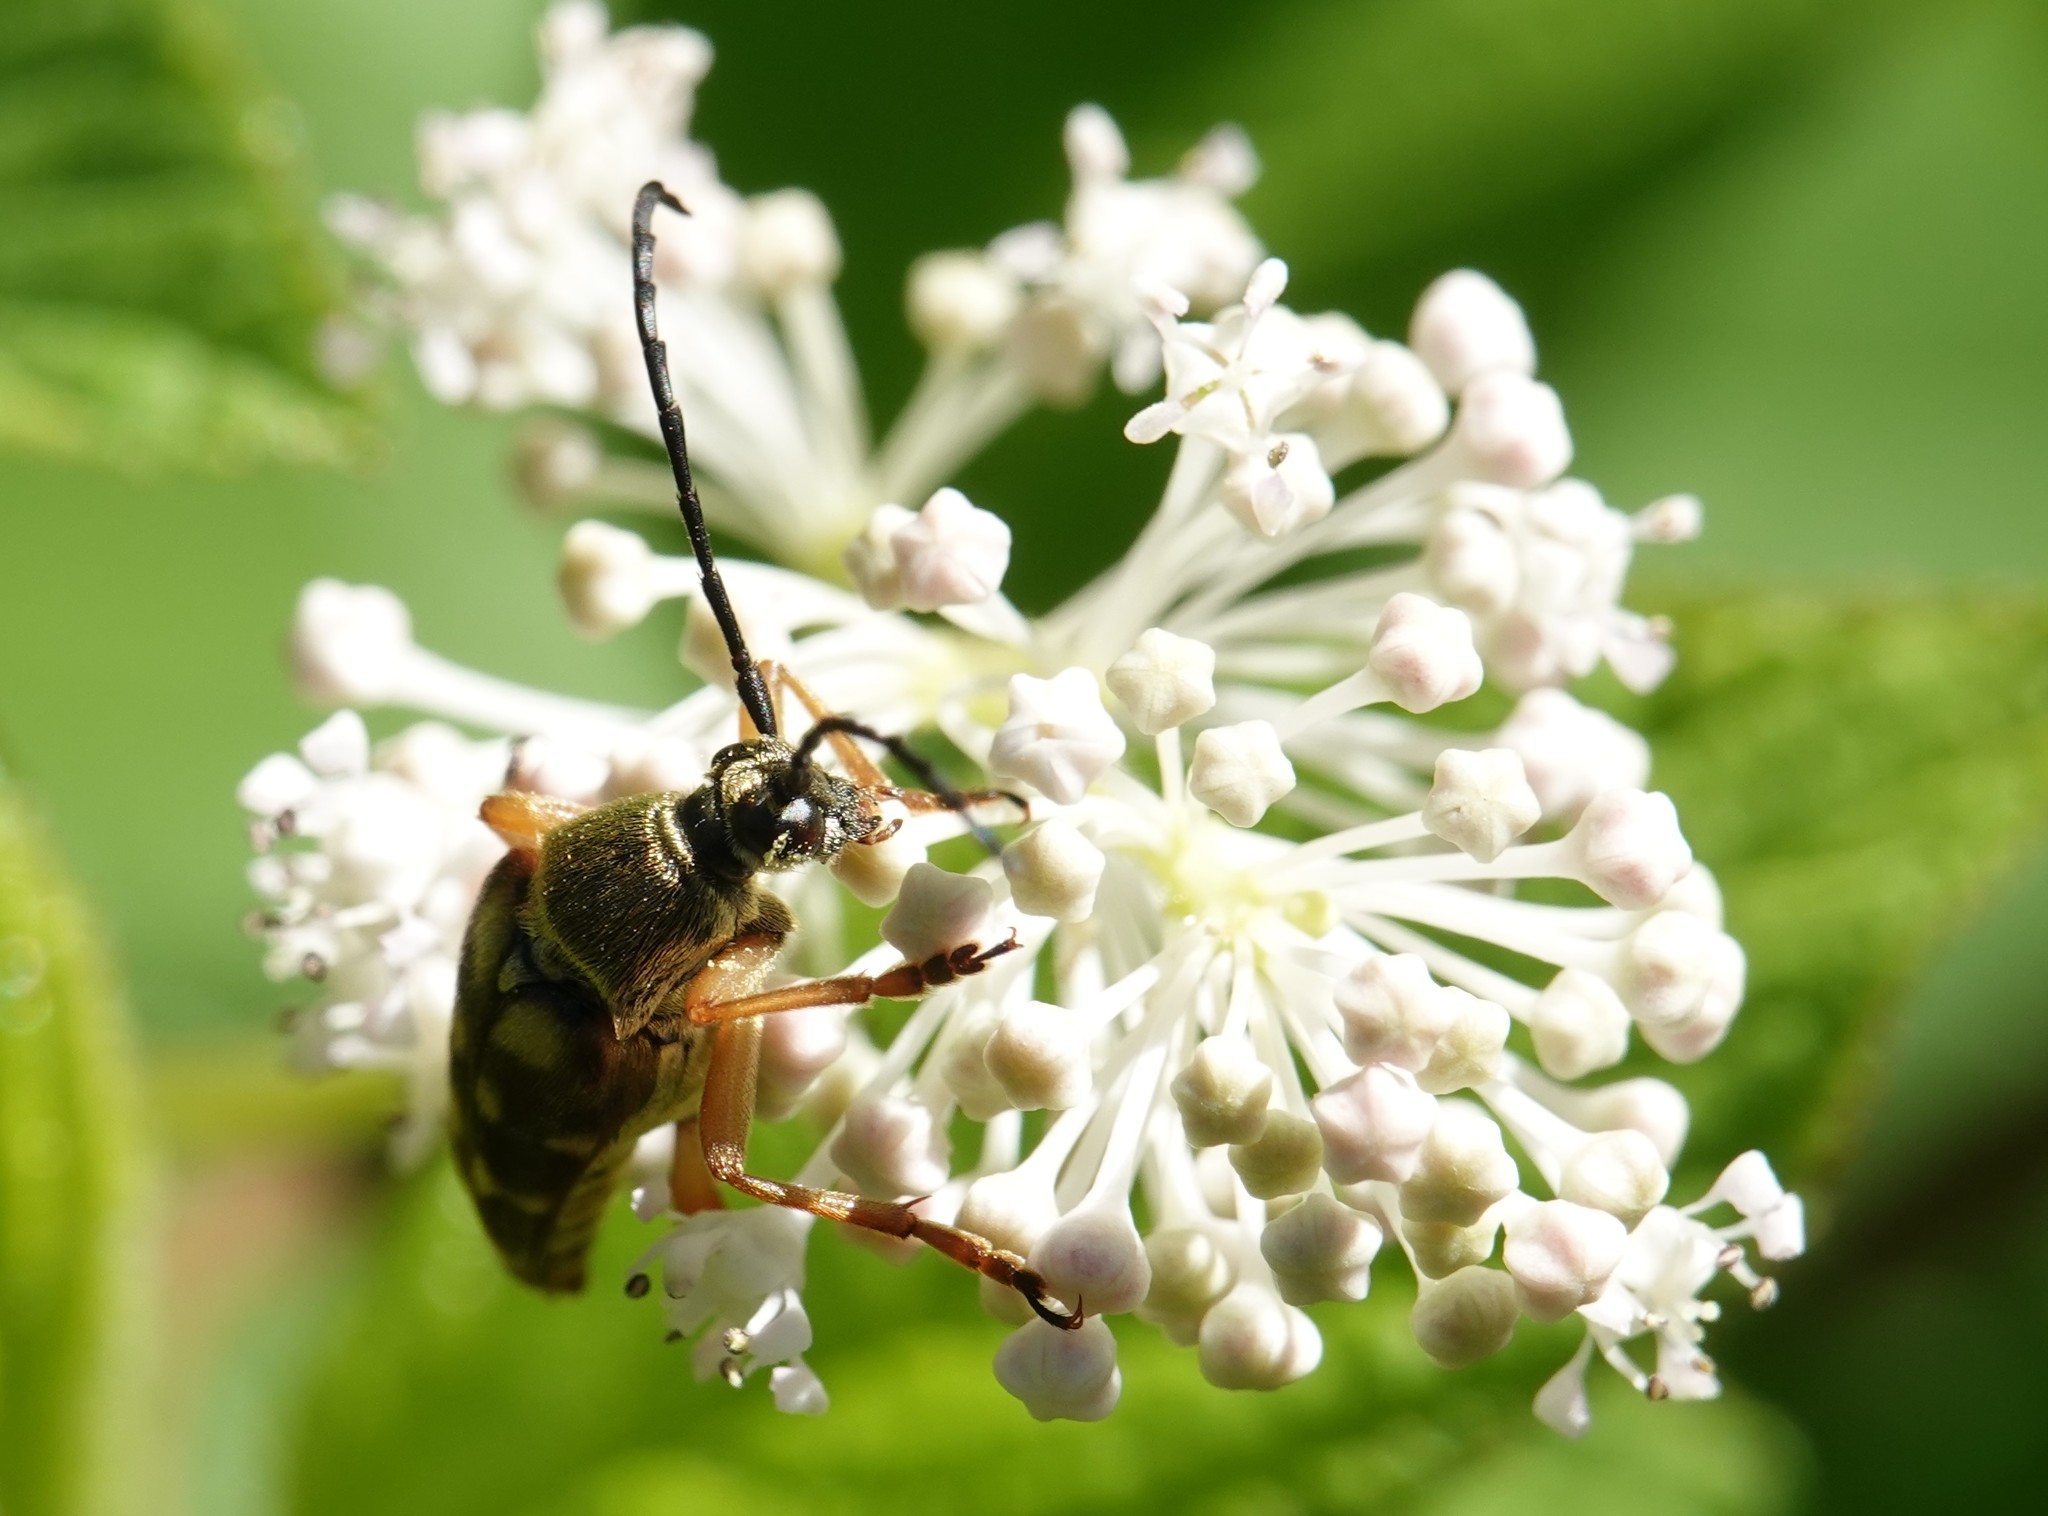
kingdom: Animalia
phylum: Arthropoda
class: Insecta
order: Coleoptera
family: Cerambycidae
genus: Typocerus
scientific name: Typocerus velutinus
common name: Banded longhorn beetle
